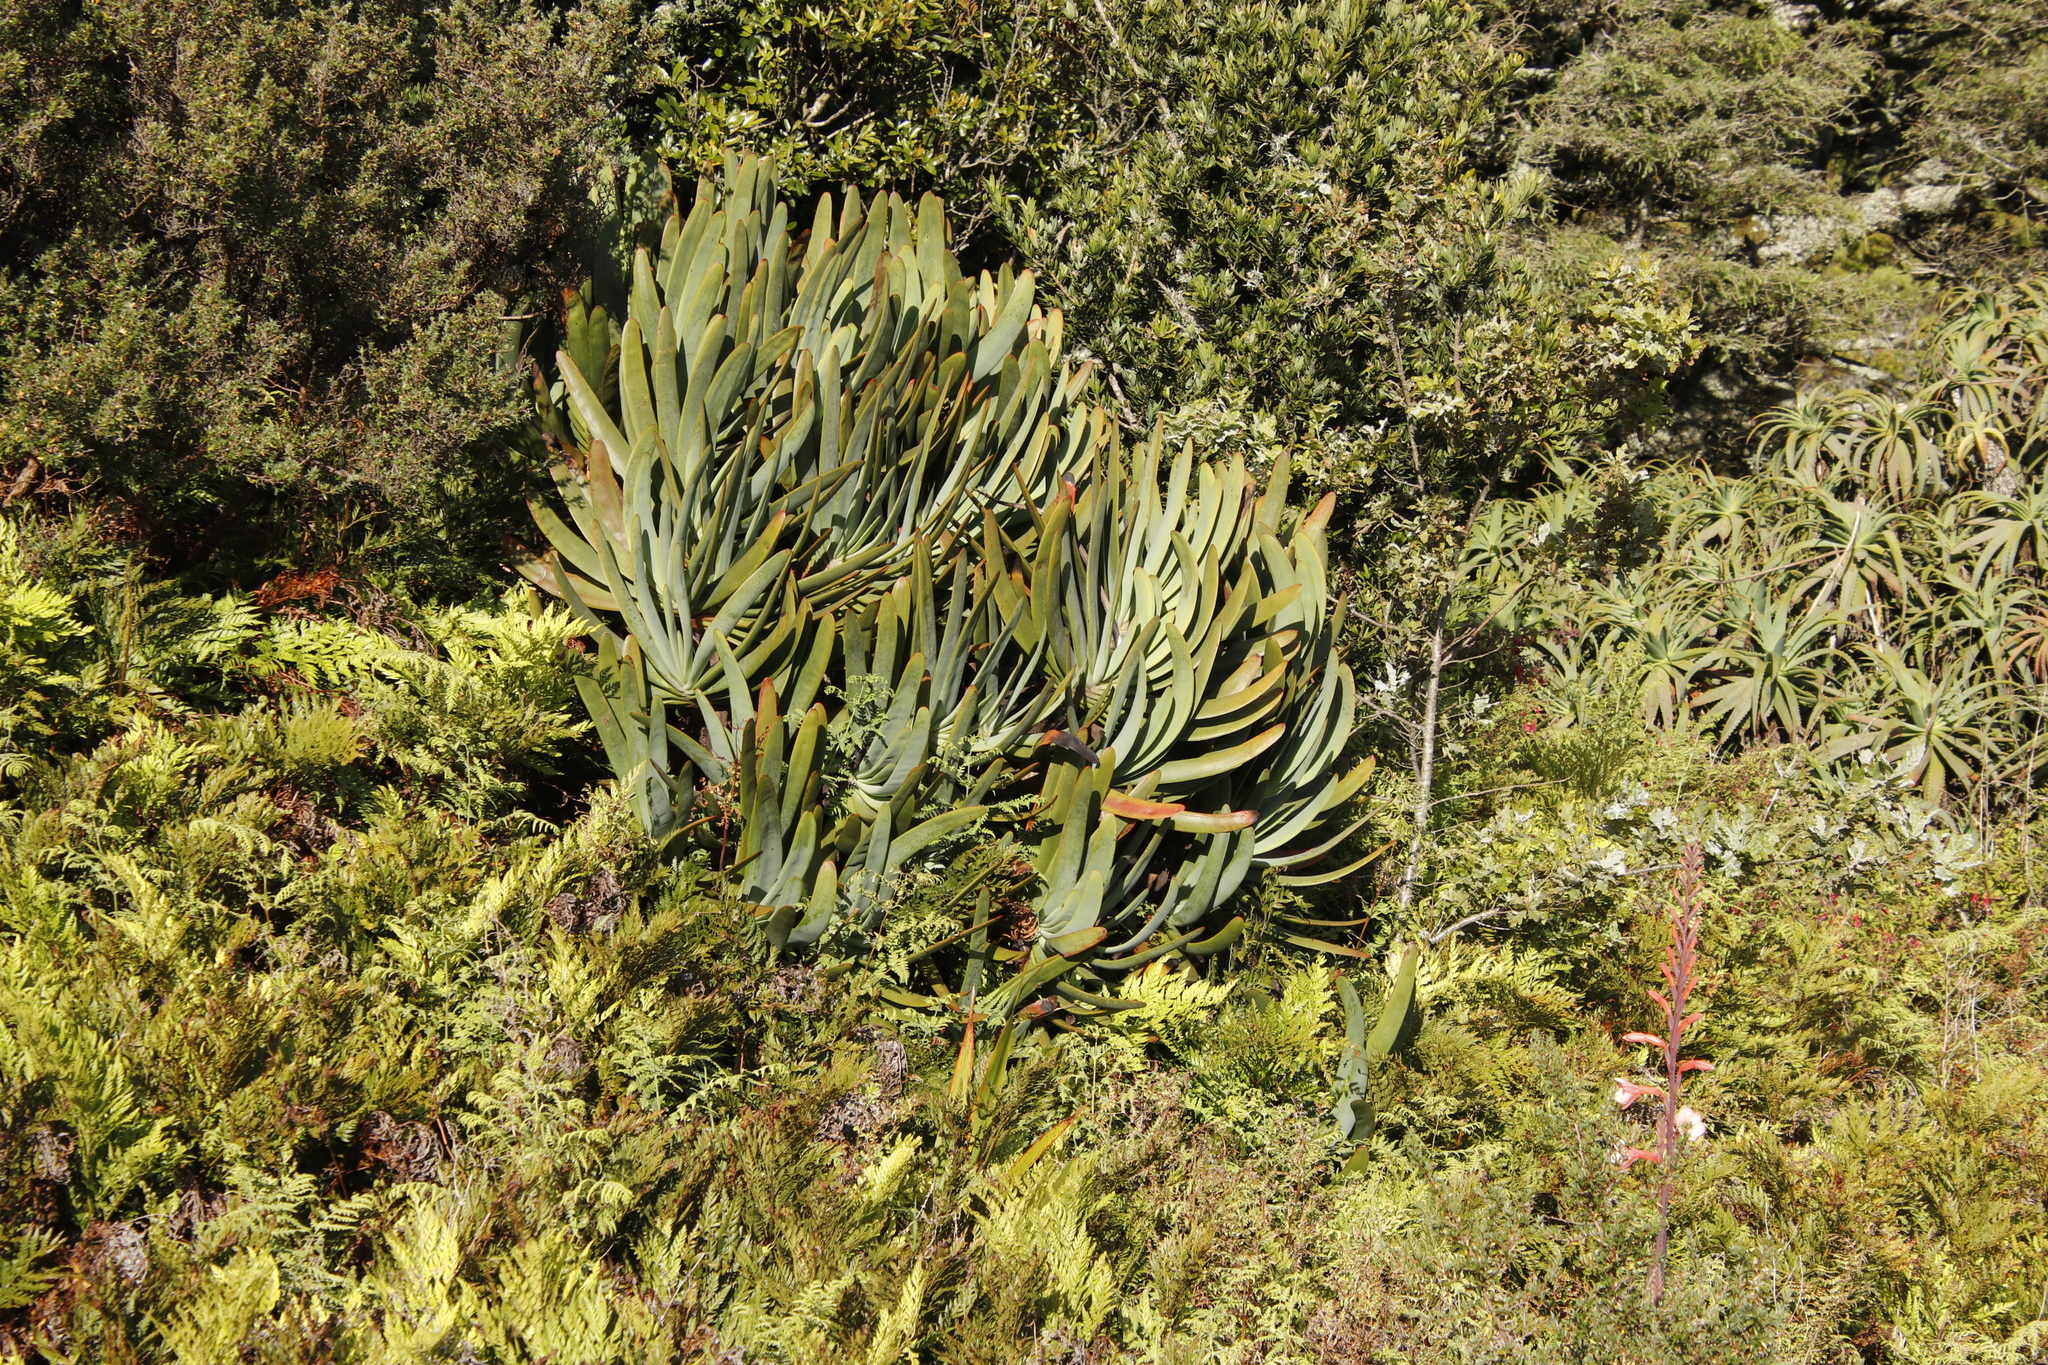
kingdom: Plantae
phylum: Tracheophyta
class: Liliopsida
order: Asparagales
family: Asphodelaceae
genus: Kumara
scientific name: Kumara plicatilis
